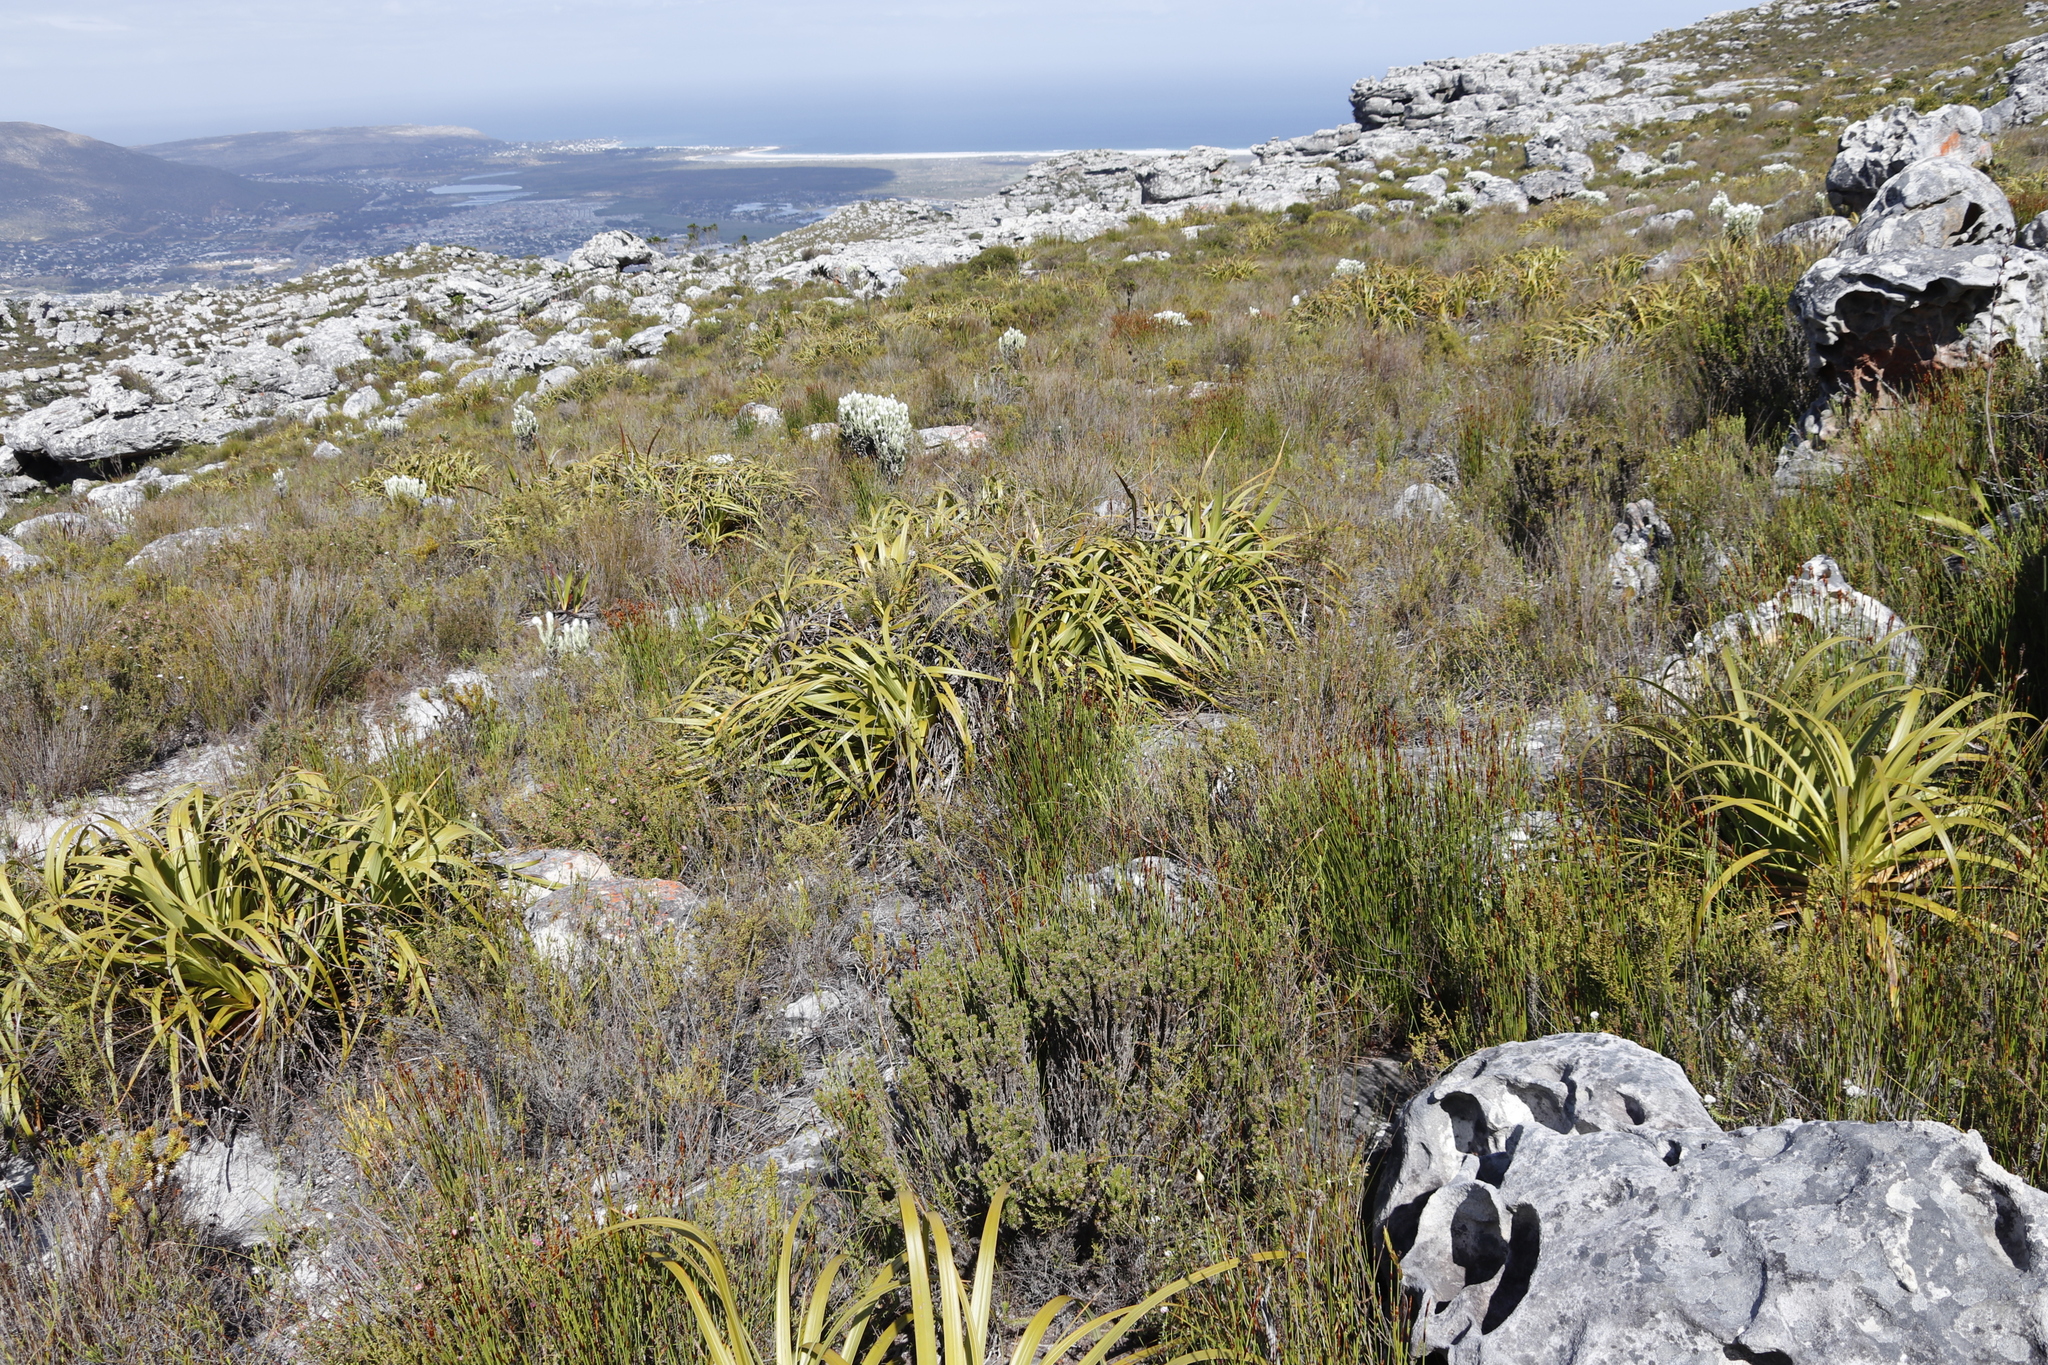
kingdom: Plantae
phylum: Tracheophyta
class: Liliopsida
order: Poales
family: Cyperaceae
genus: Tetraria
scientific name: Tetraria thermalis
